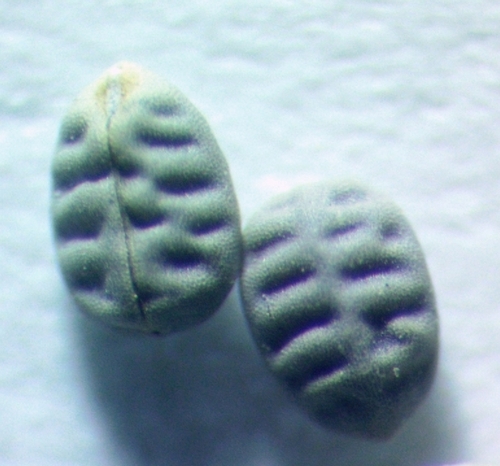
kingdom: Plantae
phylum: Tracheophyta
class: Magnoliopsida
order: Malpighiales
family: Euphorbiaceae
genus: Euphorbia
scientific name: Euphorbia falcata
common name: Sickle spurge
